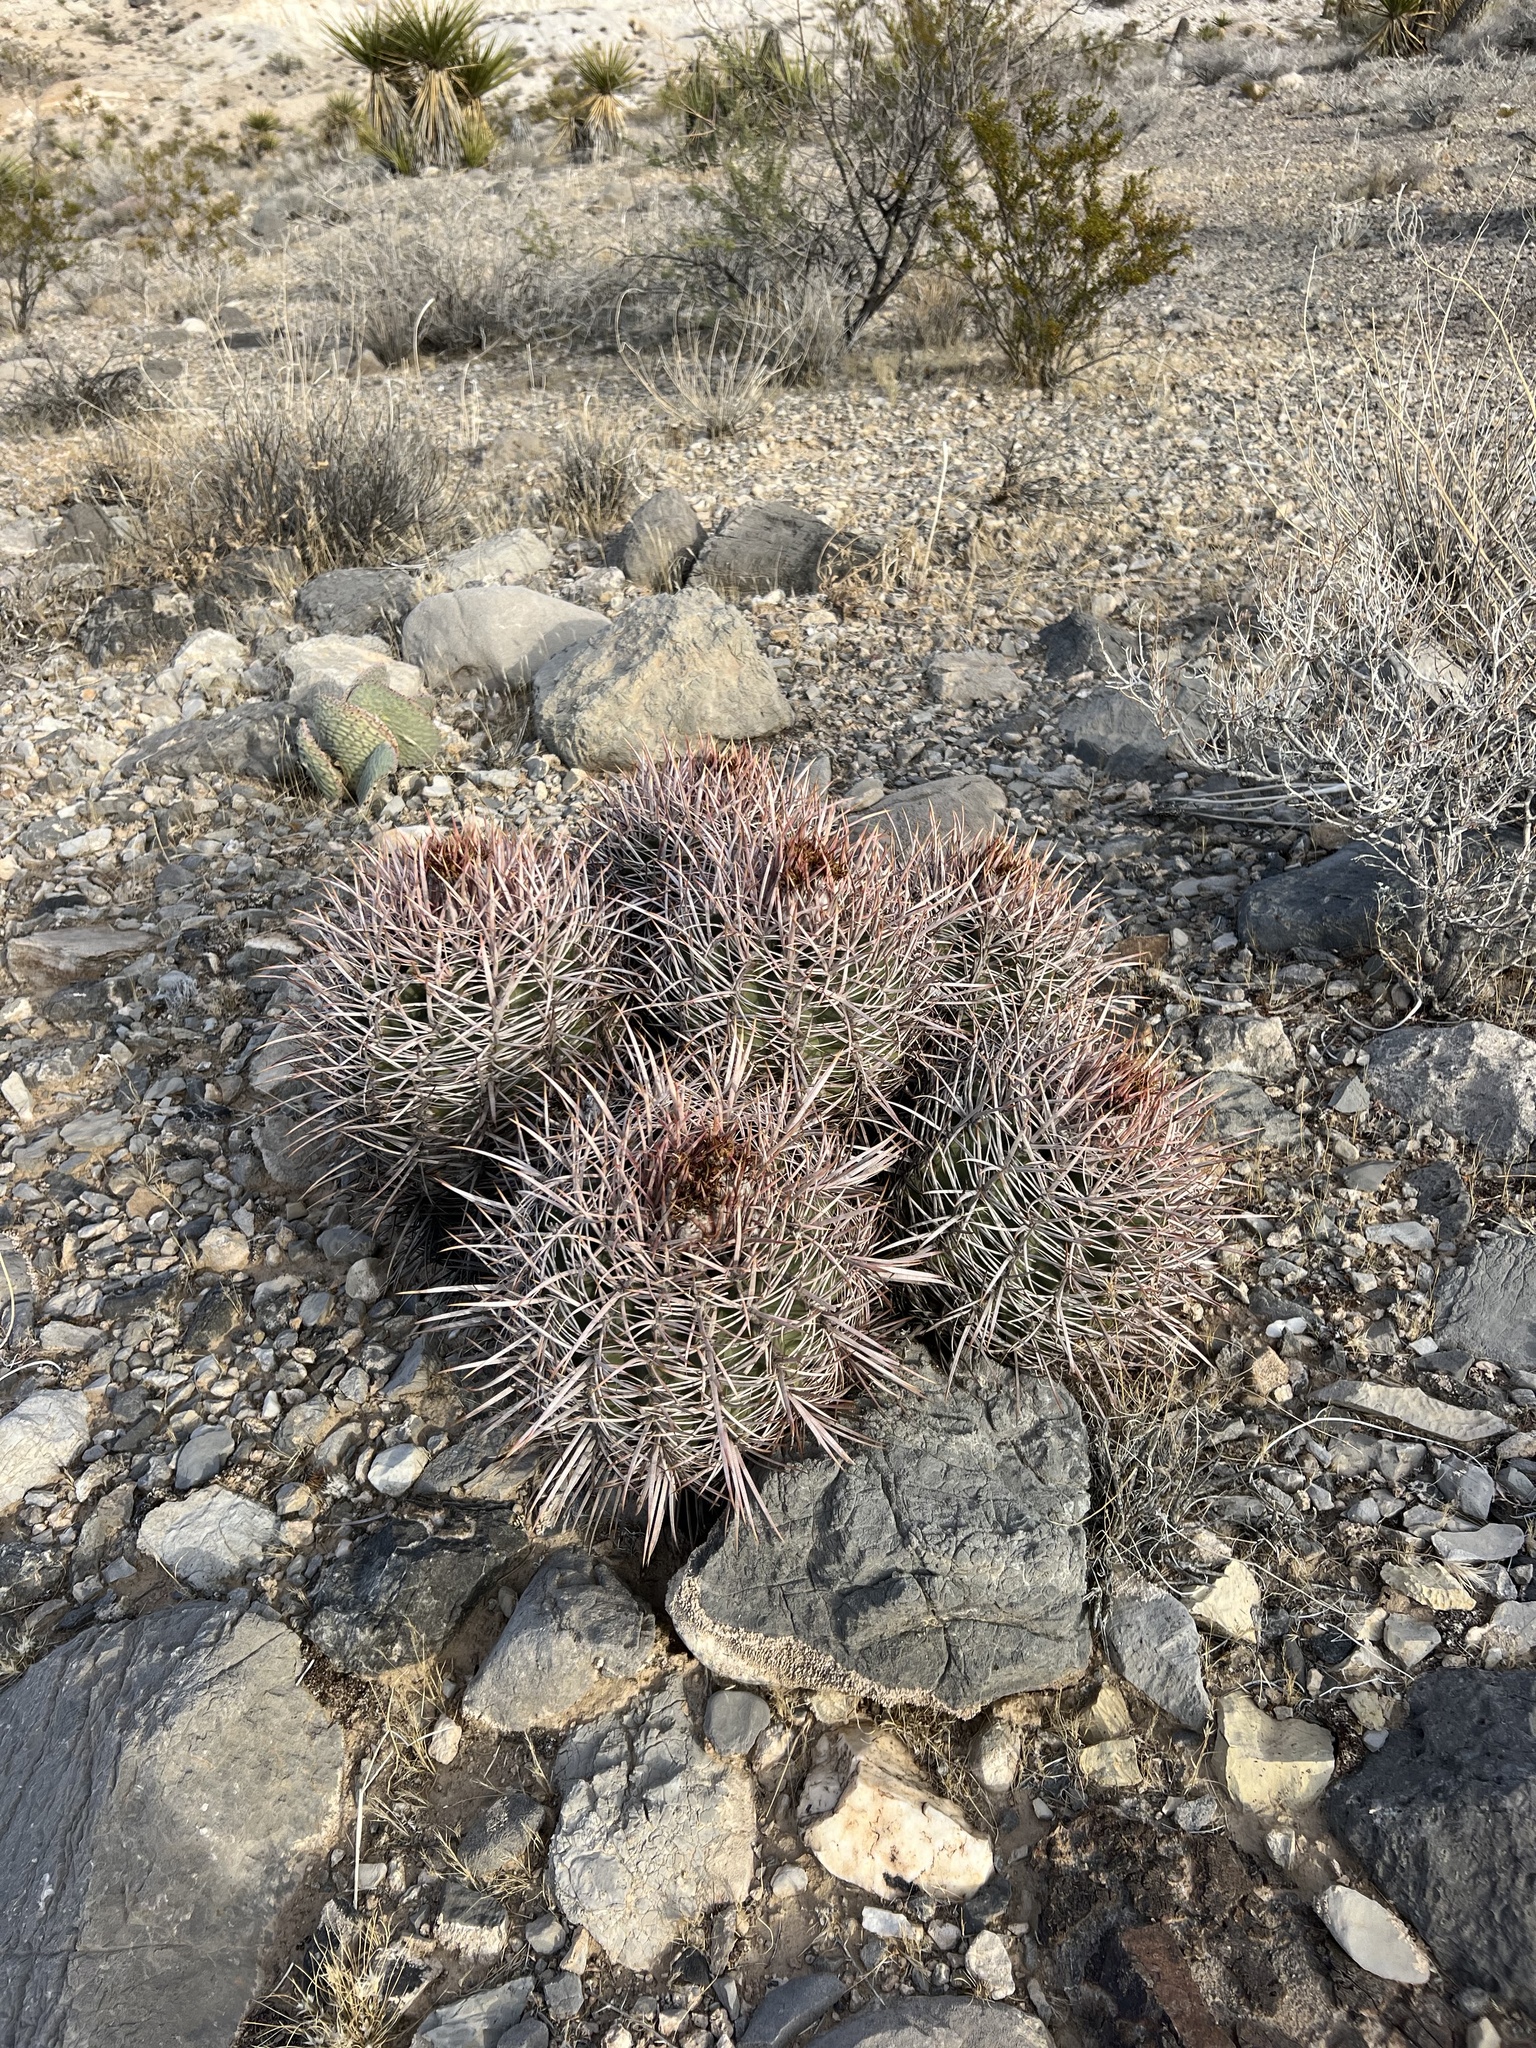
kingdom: Plantae
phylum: Tracheophyta
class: Magnoliopsida
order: Caryophyllales
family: Cactaceae
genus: Echinocactus
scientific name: Echinocactus polycephalus
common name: Cottontop cactus
